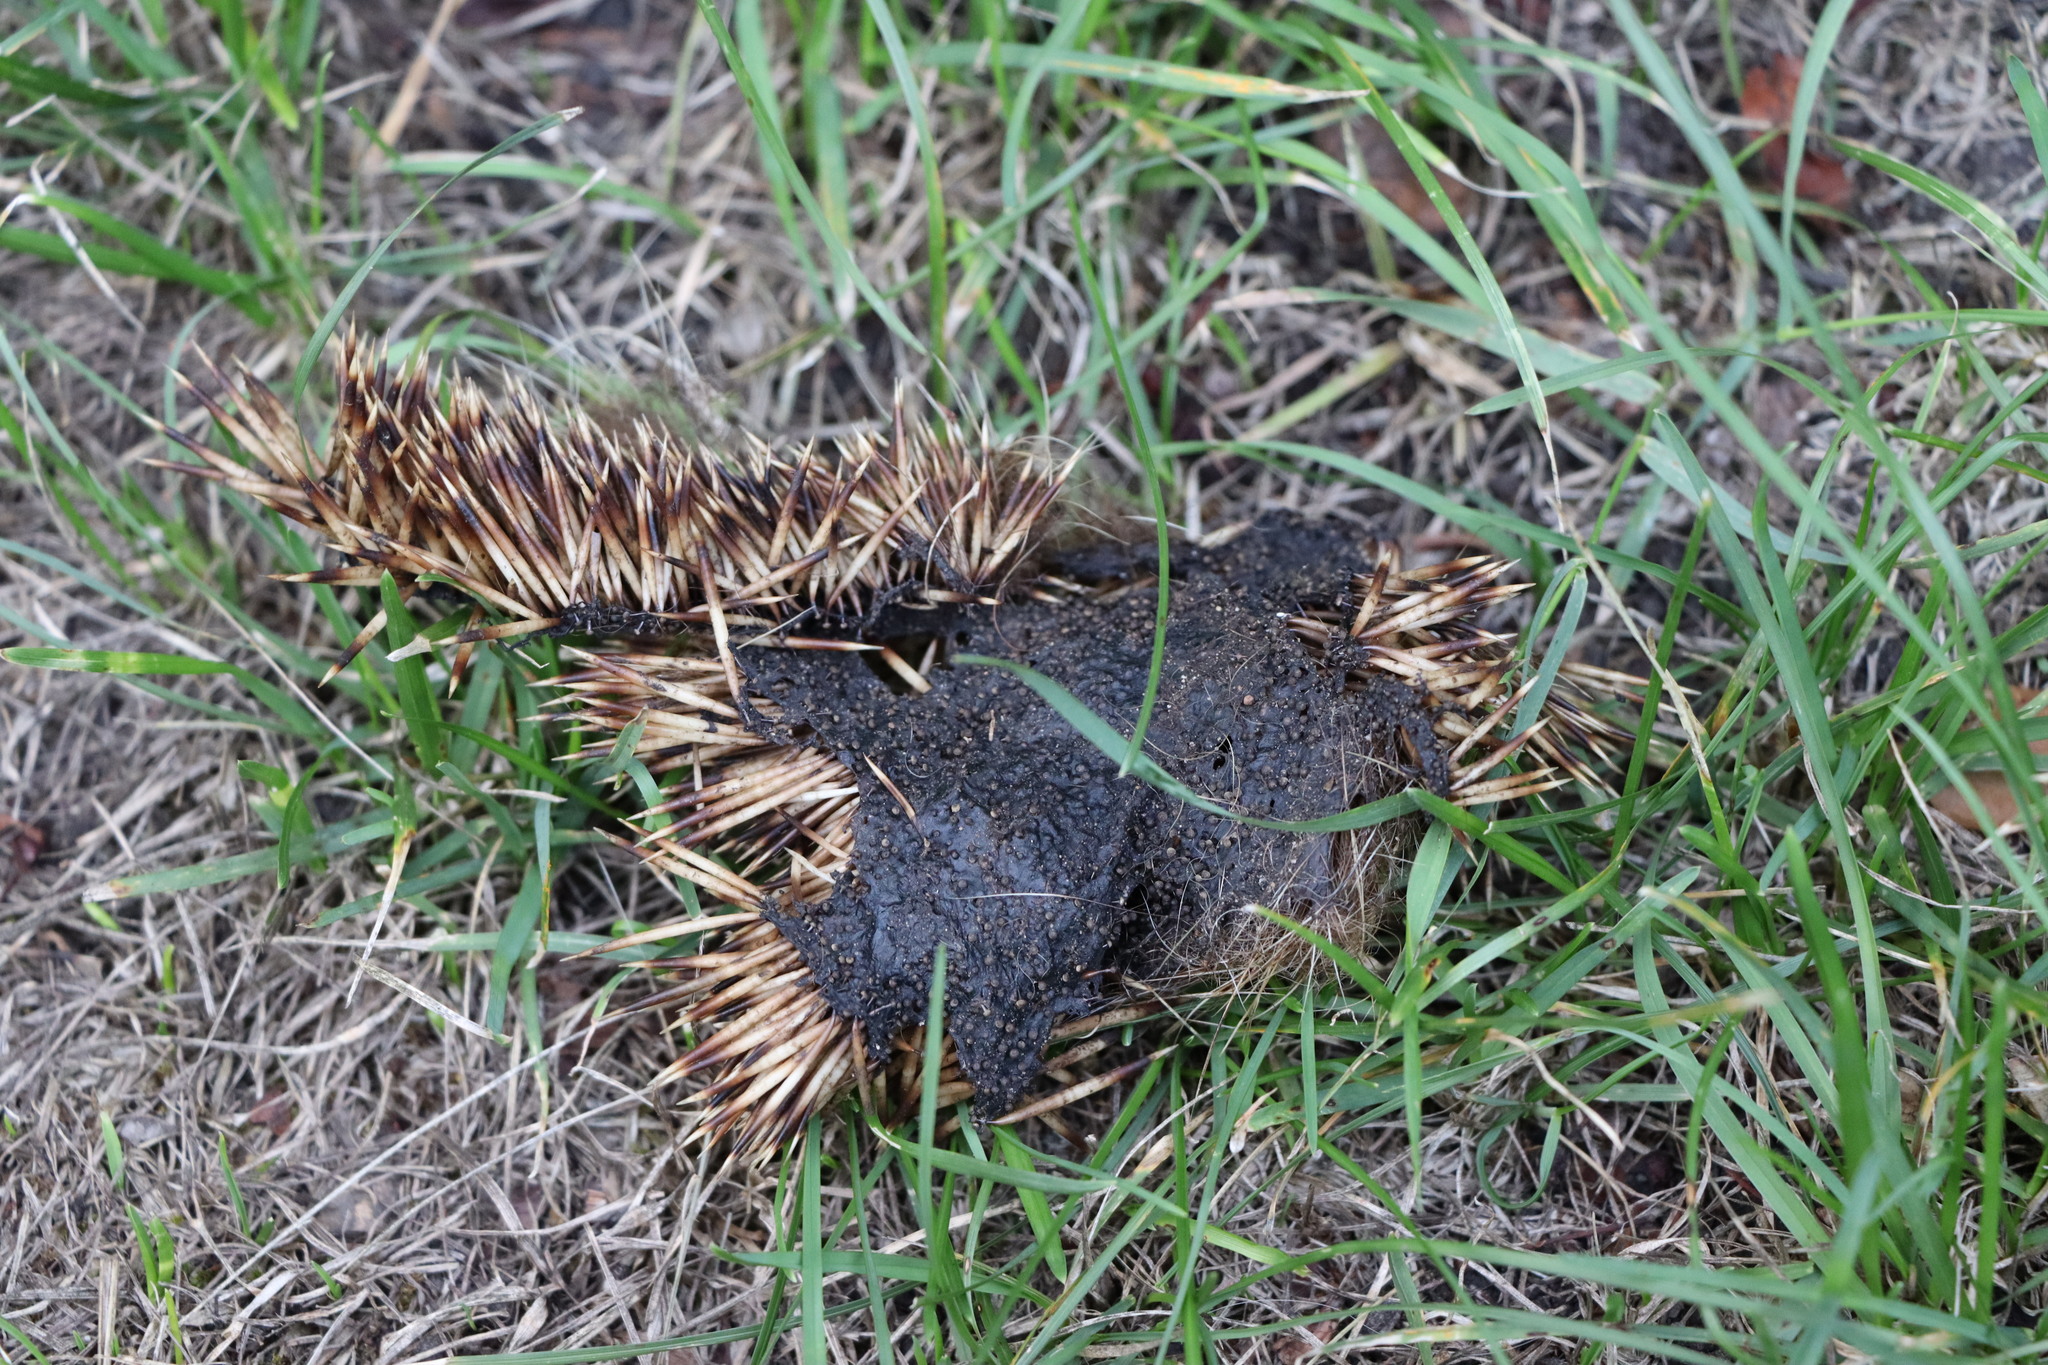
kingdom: Animalia
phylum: Chordata
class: Mammalia
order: Erinaceomorpha
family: Erinaceidae
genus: Erinaceus
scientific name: Erinaceus europaeus
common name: West european hedgehog
